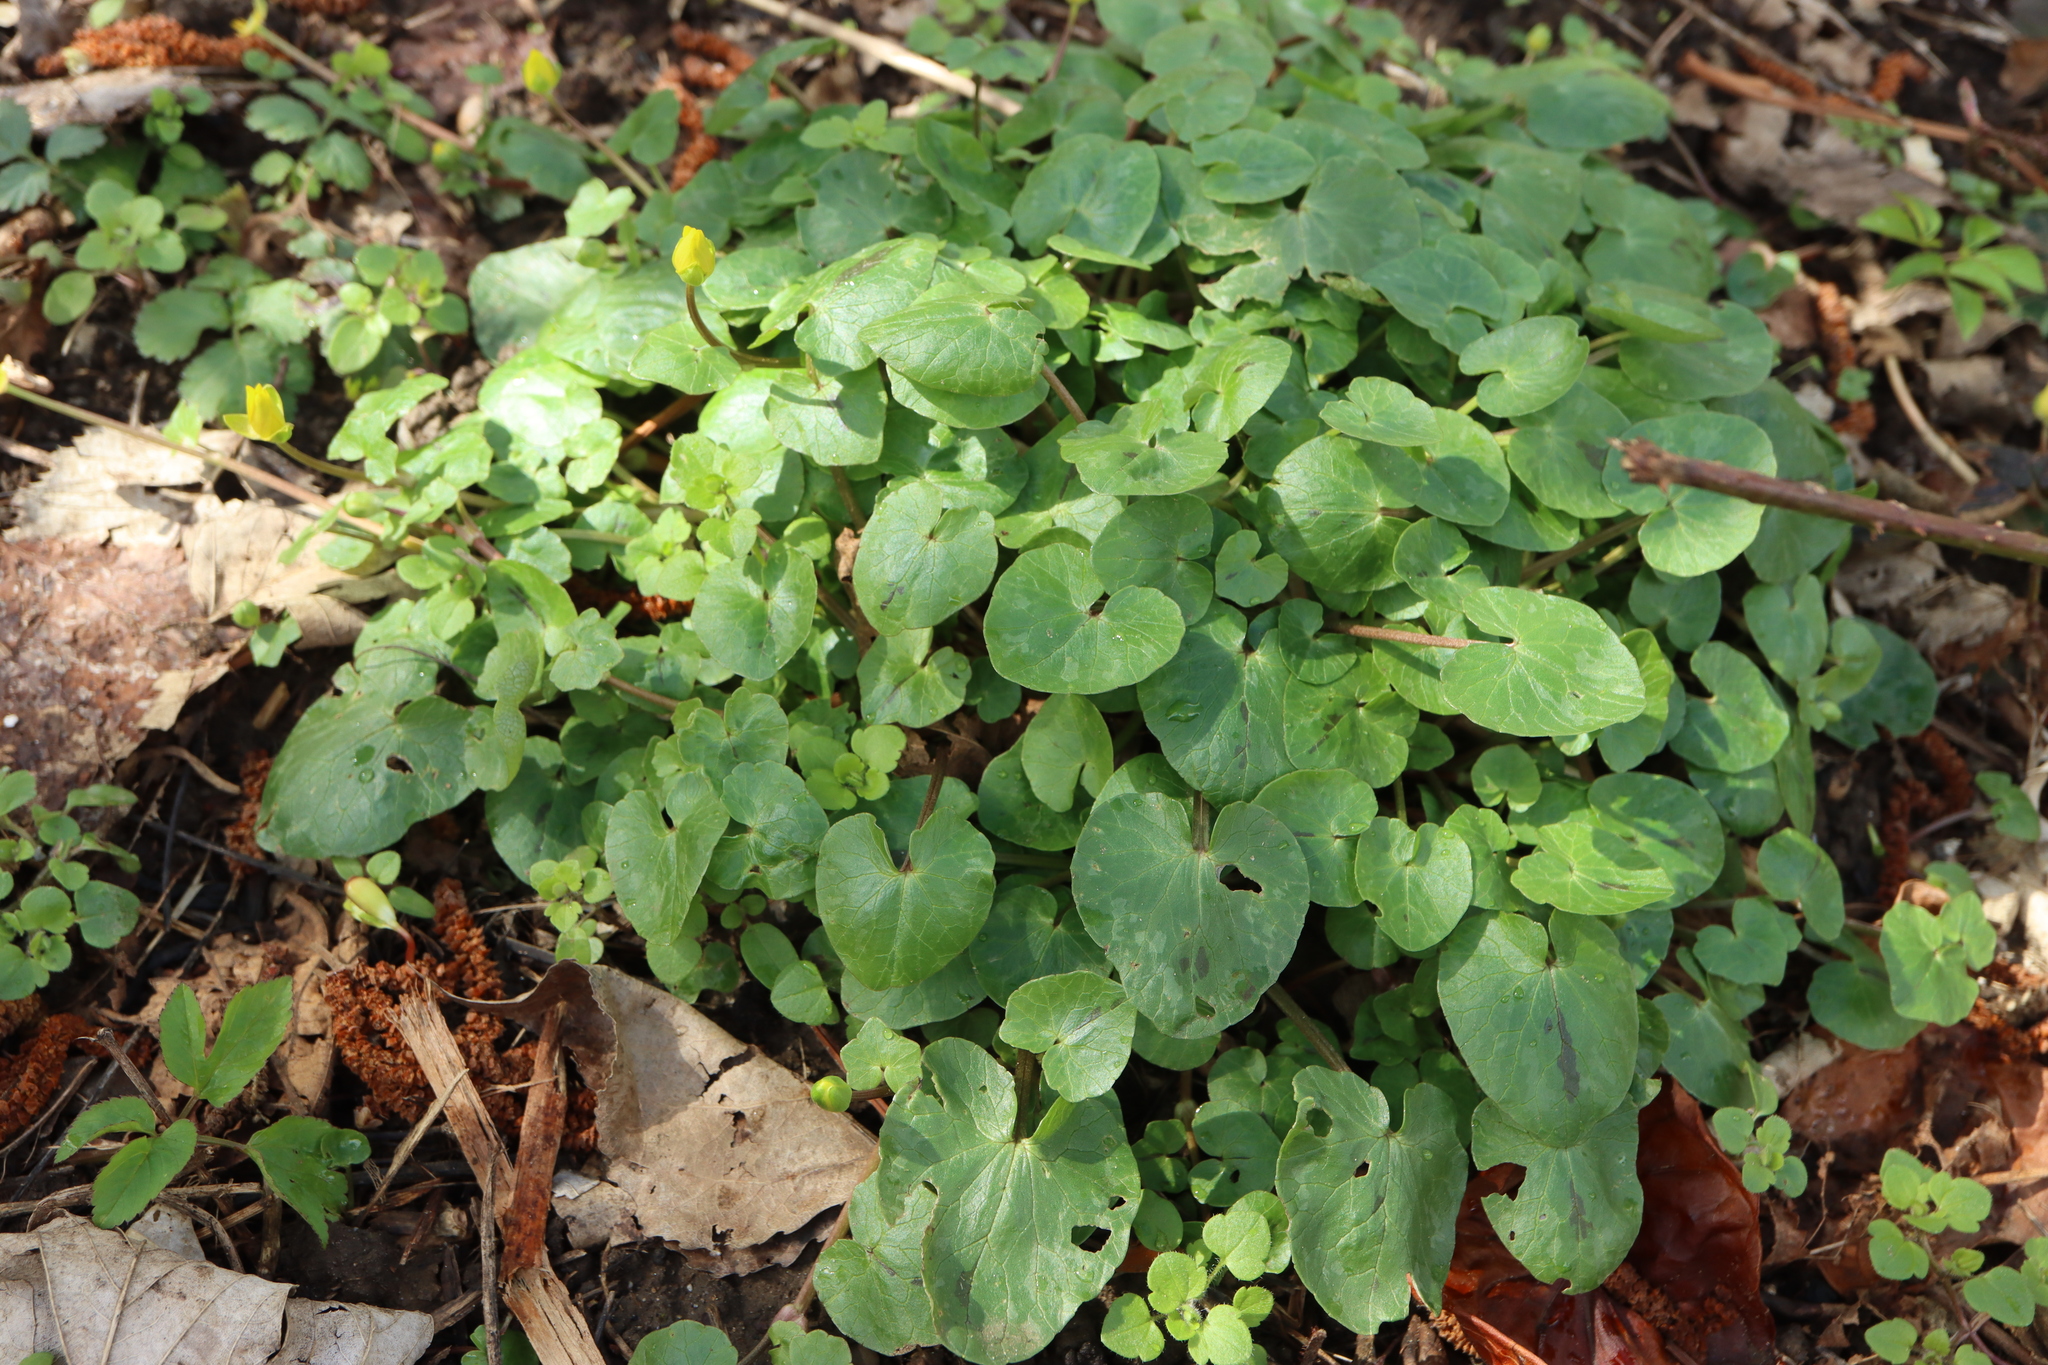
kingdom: Plantae
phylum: Tracheophyta
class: Magnoliopsida
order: Ranunculales
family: Ranunculaceae
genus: Ficaria
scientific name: Ficaria verna
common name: Lesser celandine
